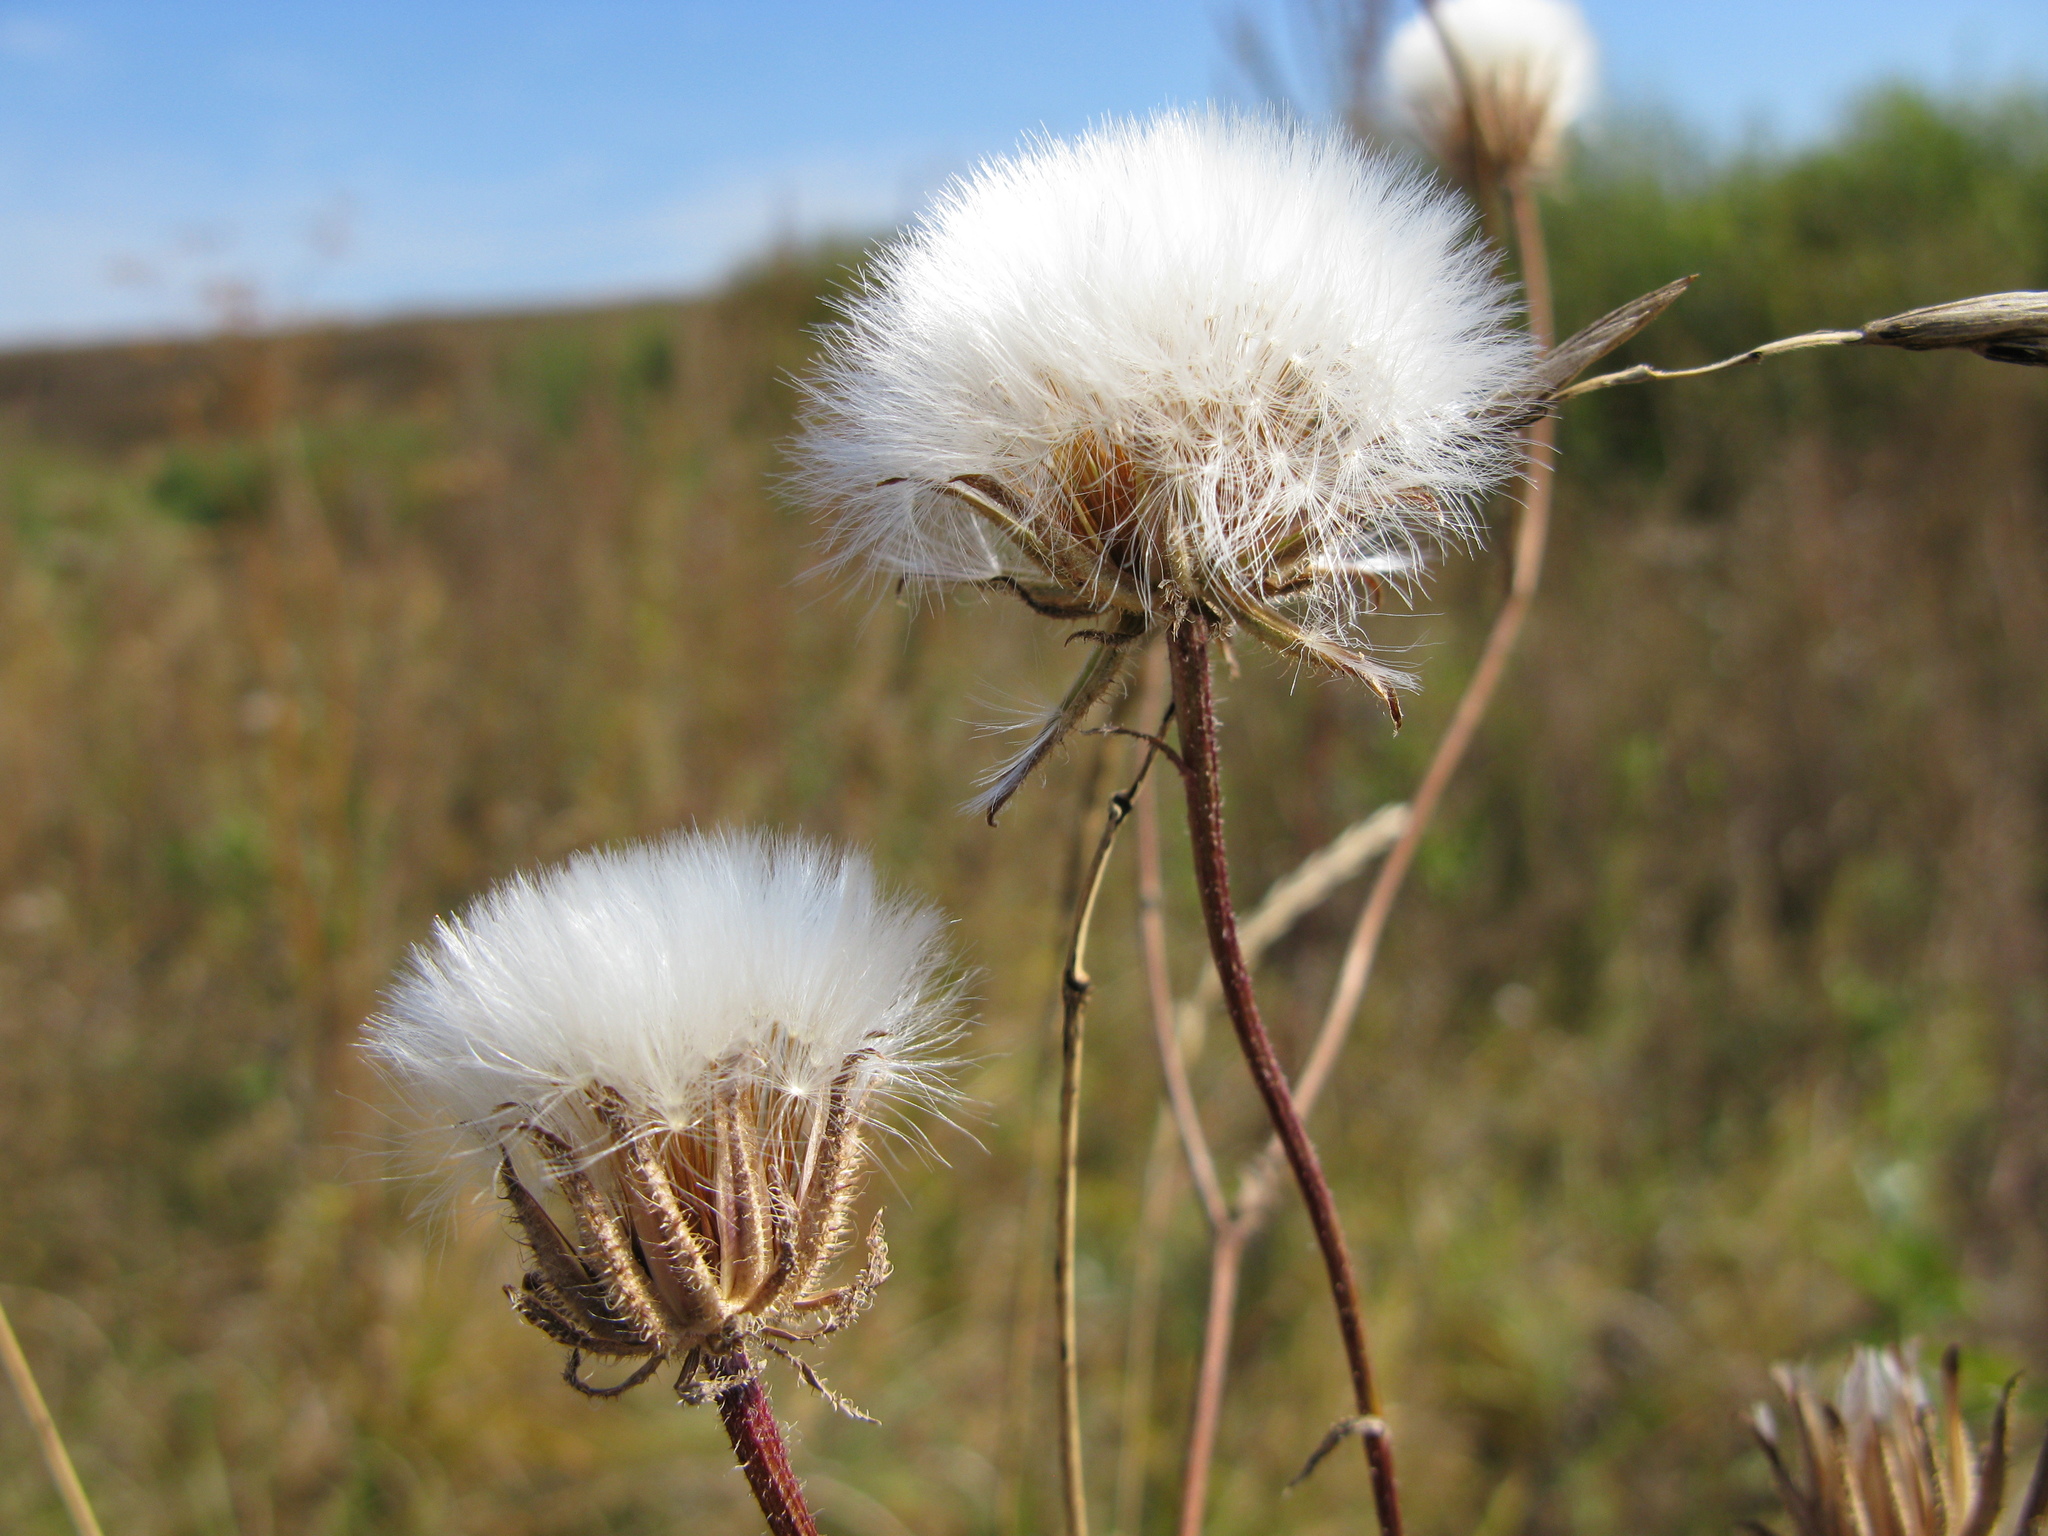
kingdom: Plantae
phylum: Tracheophyta
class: Magnoliopsida
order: Asterales
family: Asteraceae
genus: Crepis
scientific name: Crepis foetida
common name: Stinking hawk's-beard
